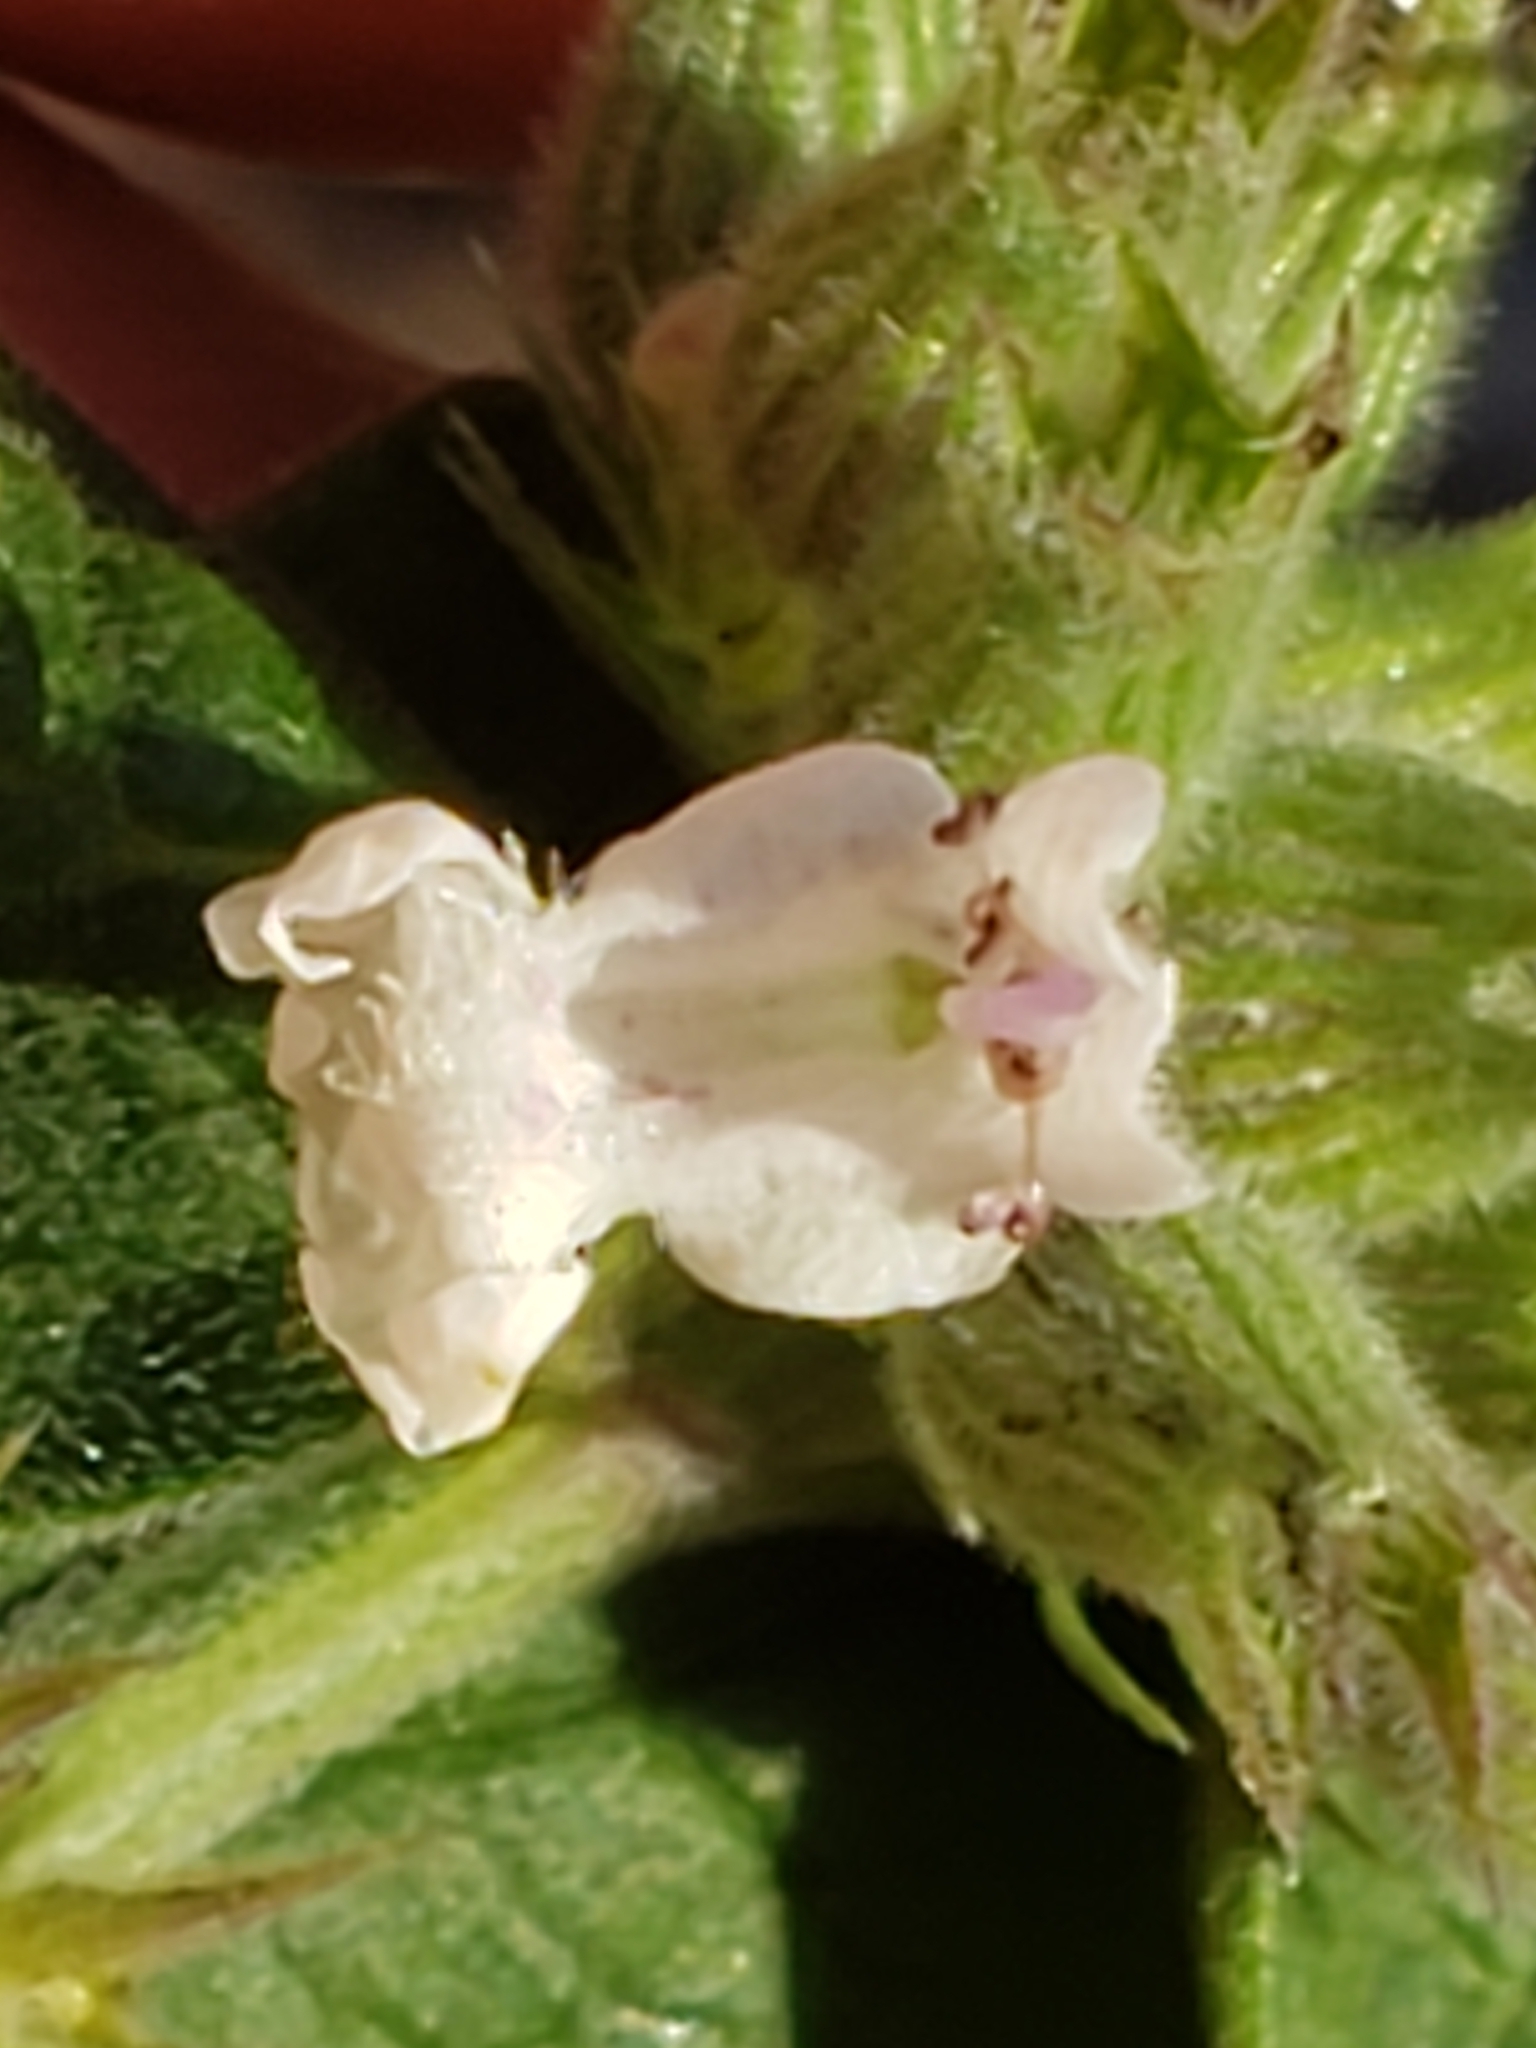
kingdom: Plantae
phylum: Tracheophyta
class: Magnoliopsida
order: Lamiales
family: Lamiaceae
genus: Nepeta
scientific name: Nepeta cataria
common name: Catnip
